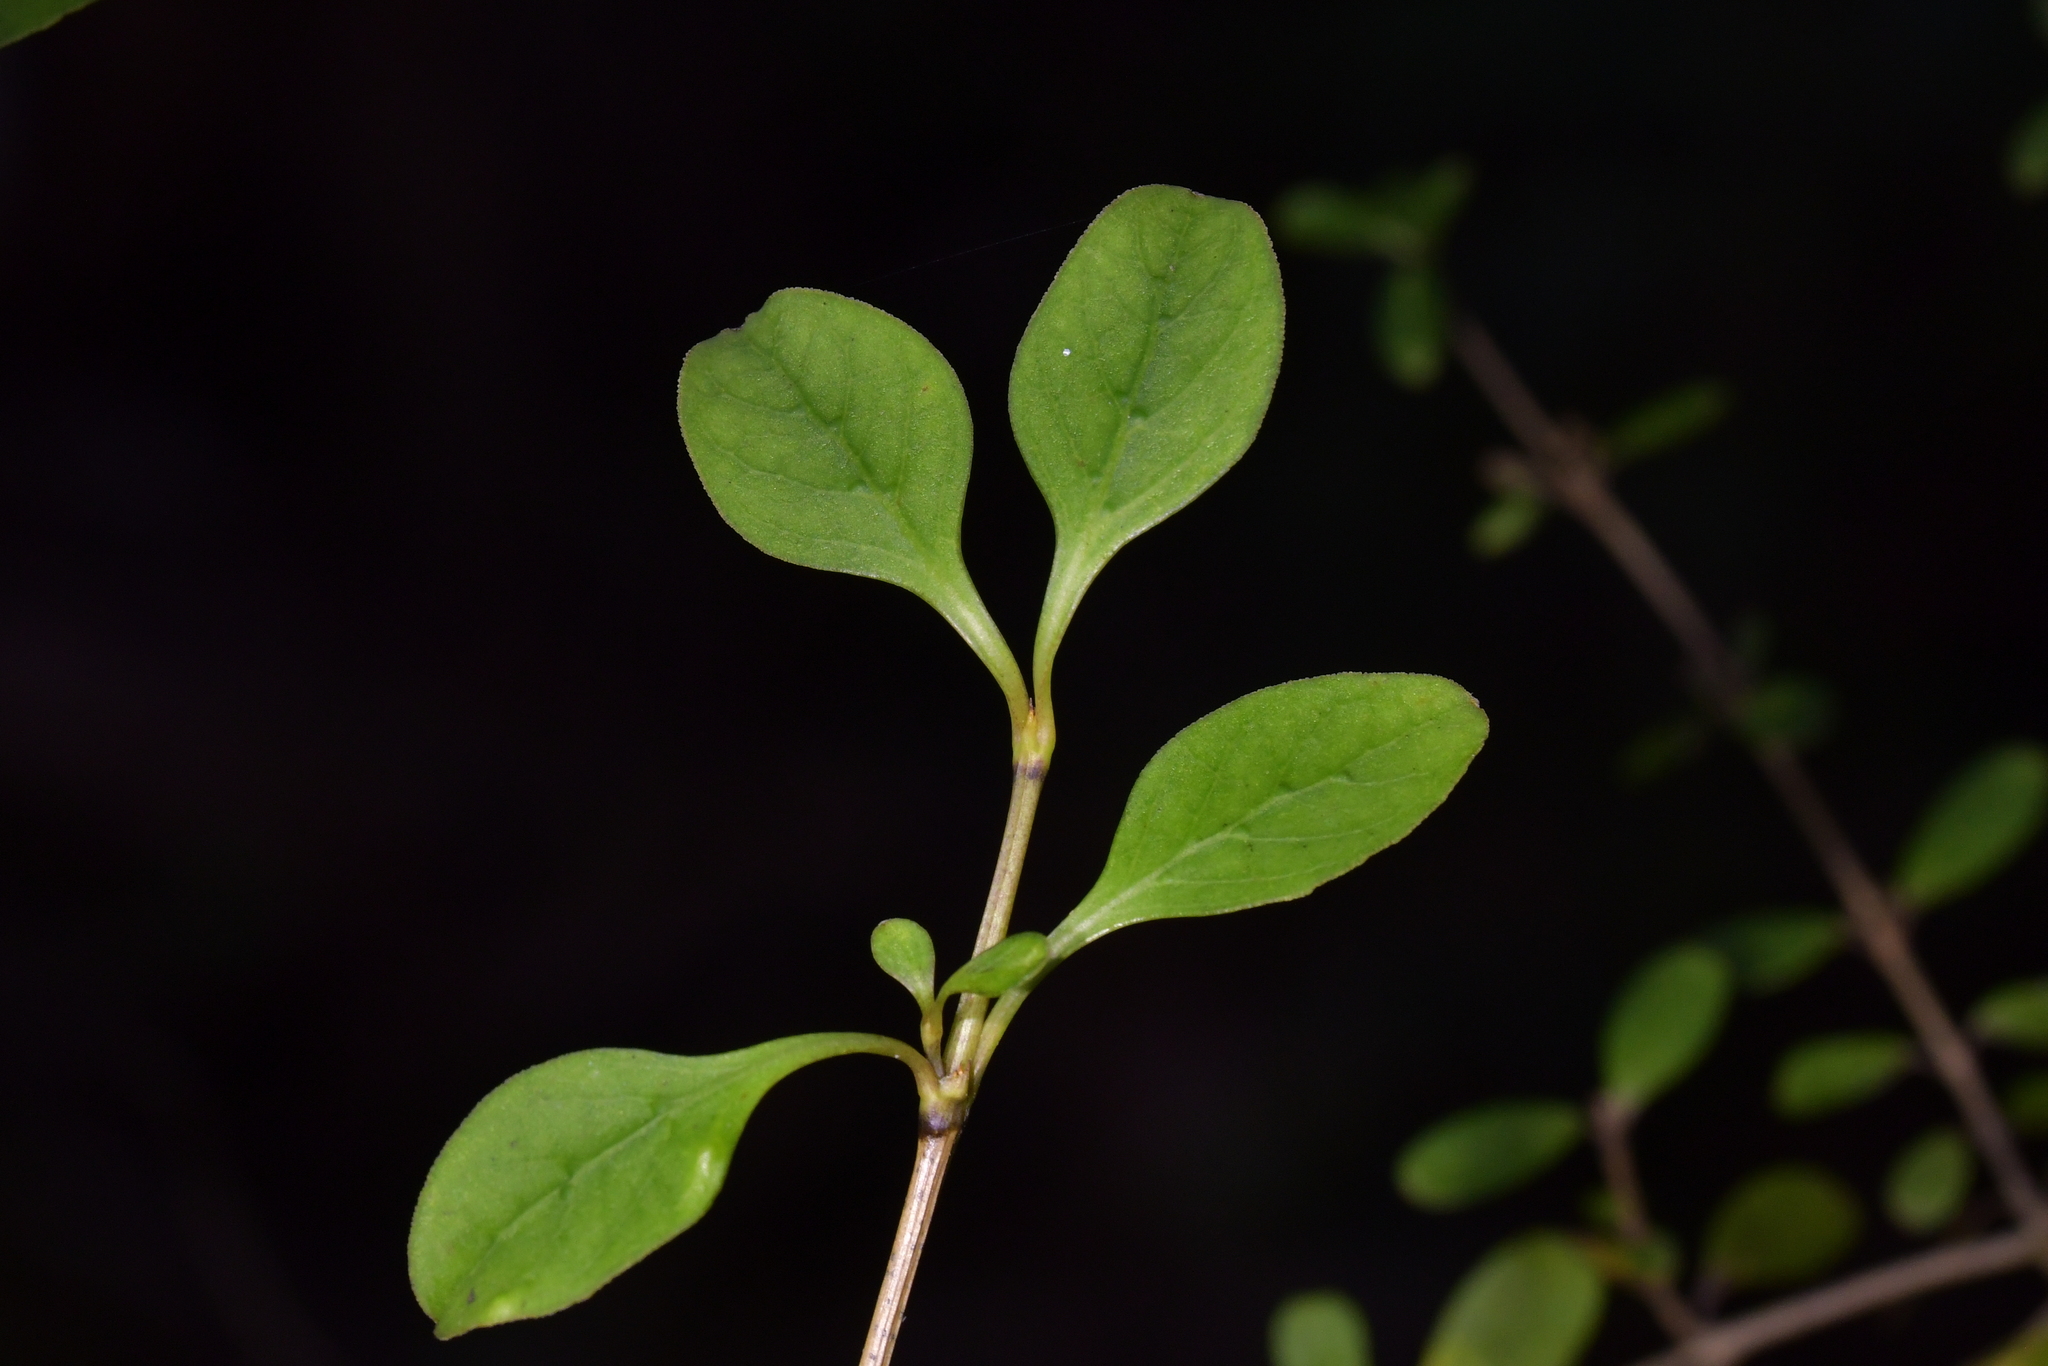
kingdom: Plantae
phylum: Tracheophyta
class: Magnoliopsida
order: Gentianales
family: Rubiaceae
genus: Coprosma
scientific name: Coprosma foetidissima
